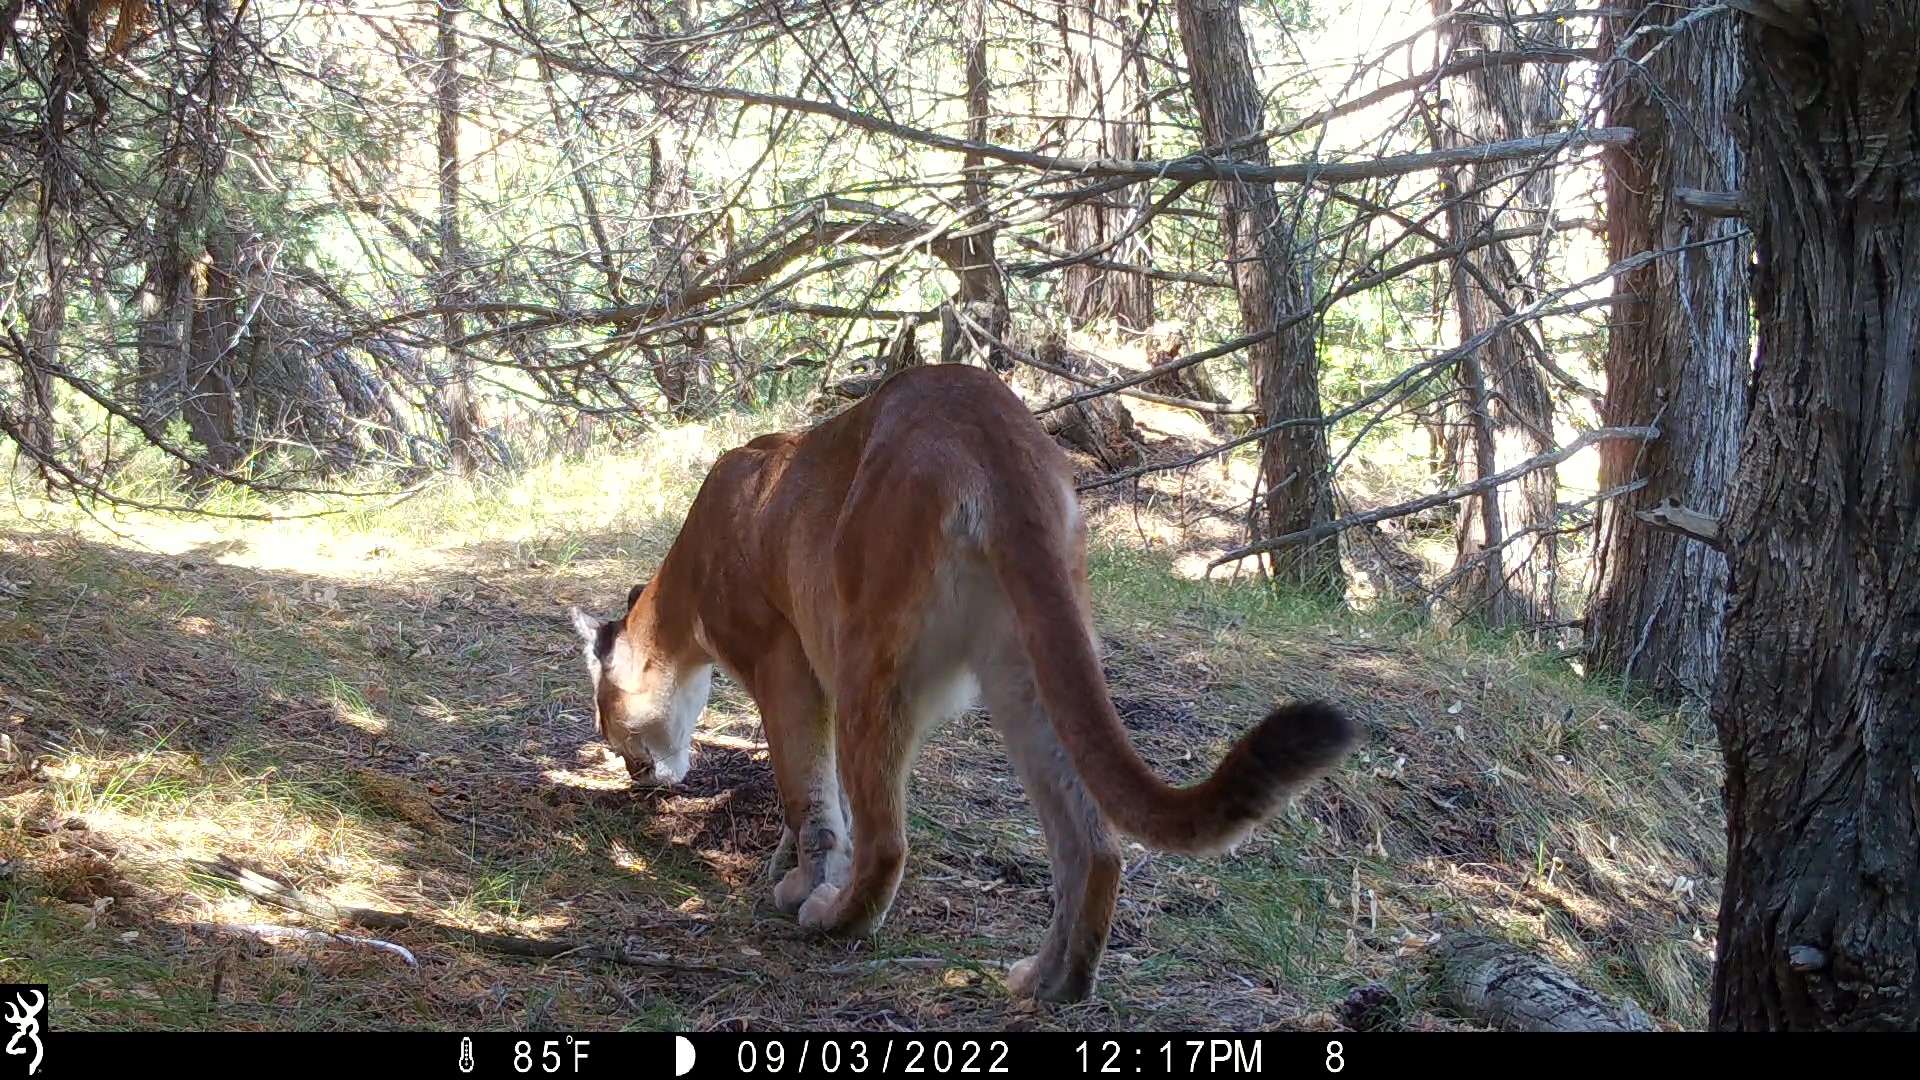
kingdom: Animalia
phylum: Chordata
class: Mammalia
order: Carnivora
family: Felidae
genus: Puma
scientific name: Puma concolor
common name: Puma
